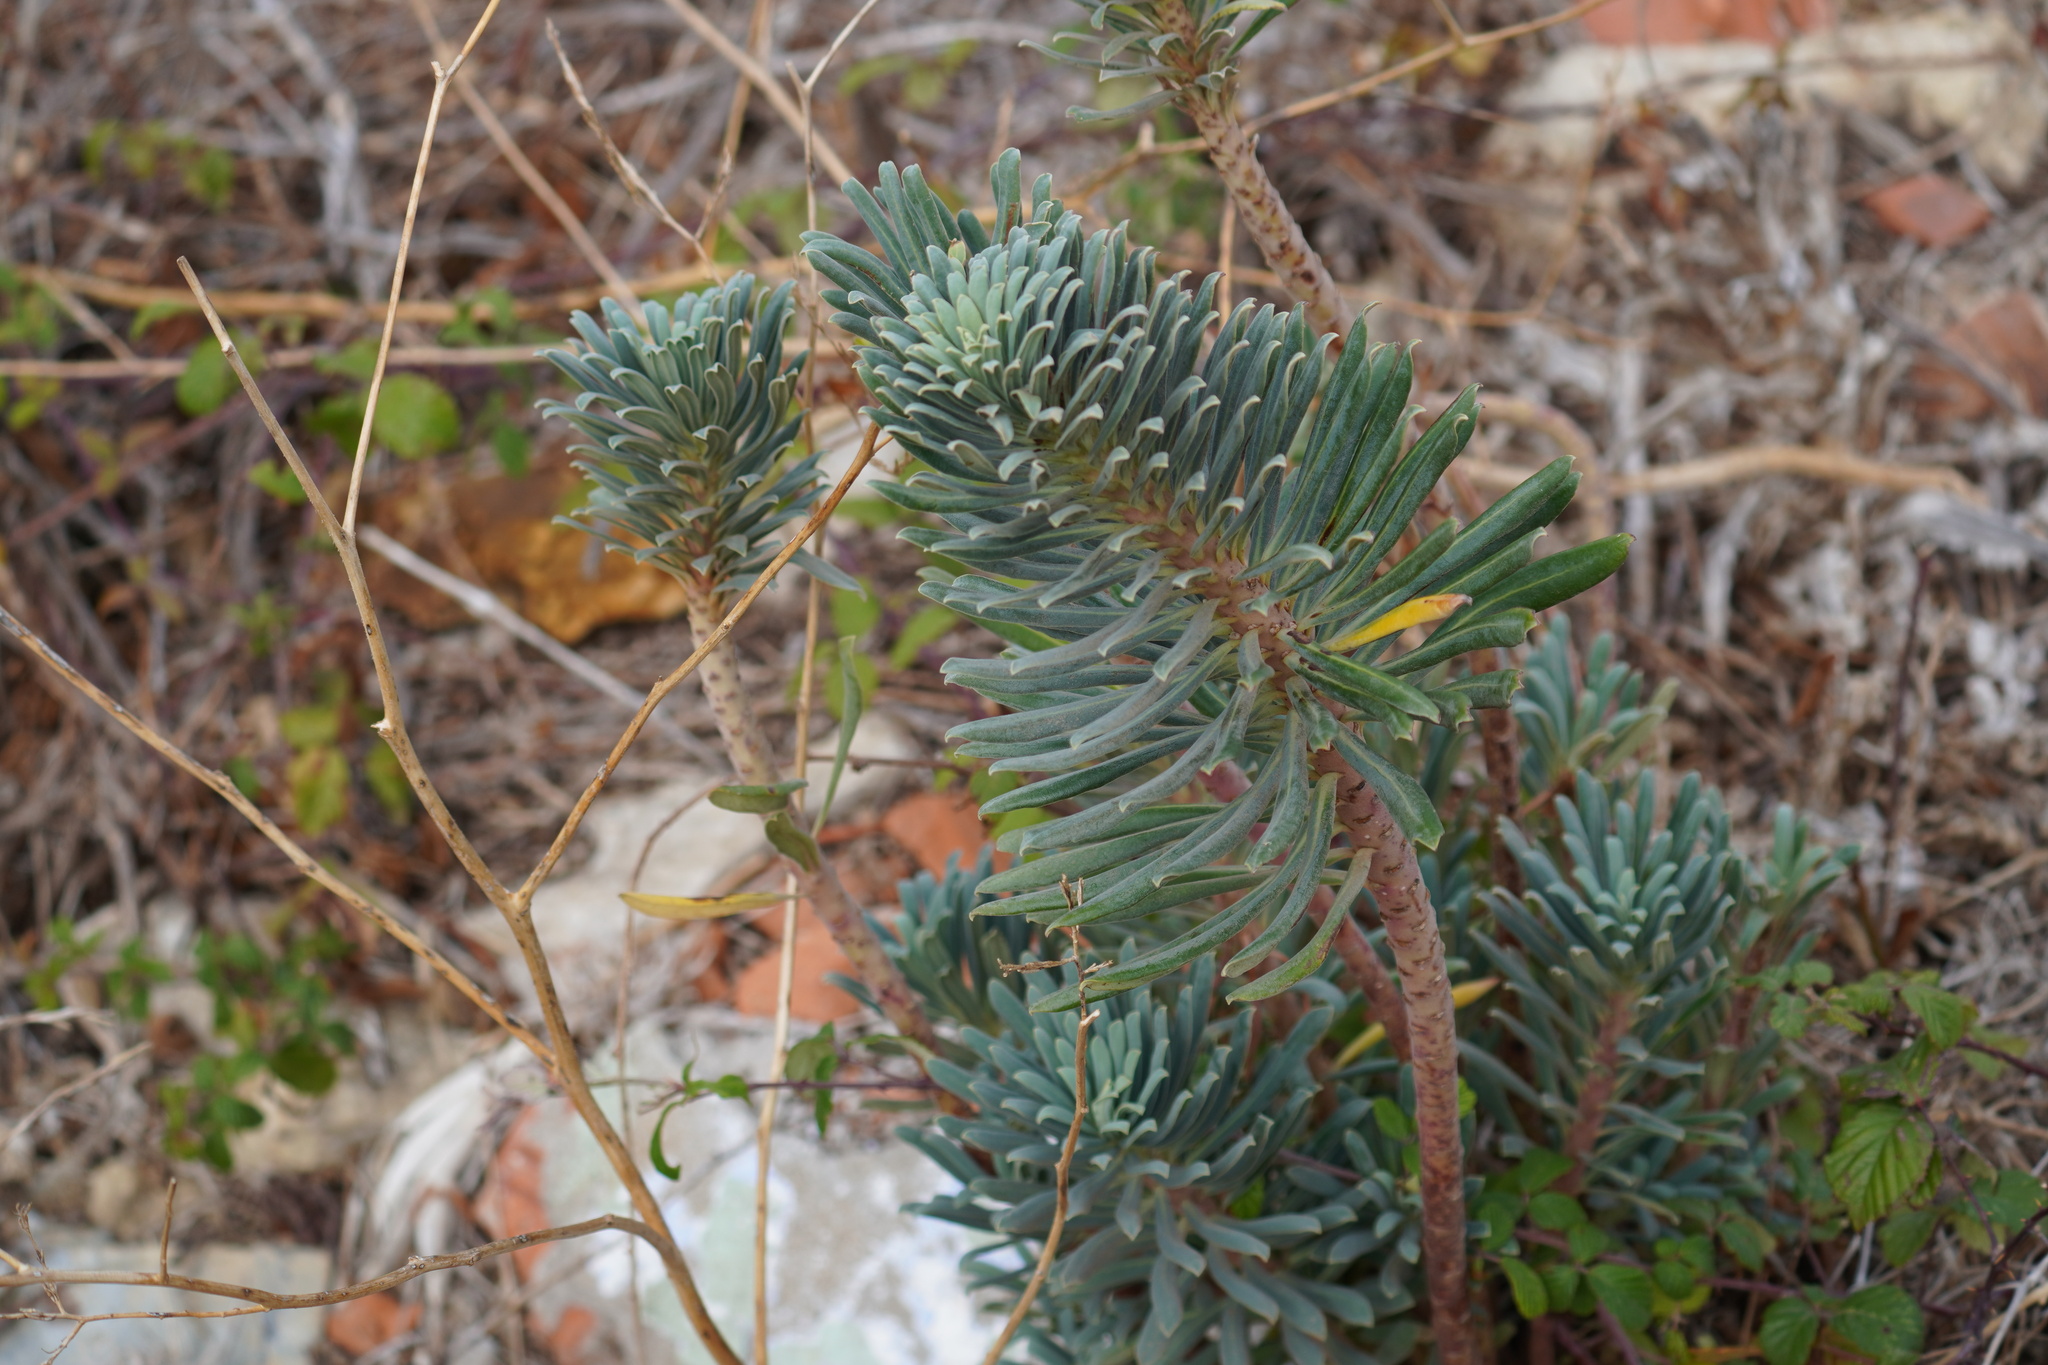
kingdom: Plantae
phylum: Tracheophyta
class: Magnoliopsida
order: Malpighiales
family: Euphorbiaceae
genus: Euphorbia
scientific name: Euphorbia characias
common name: Mediterranean spurge
